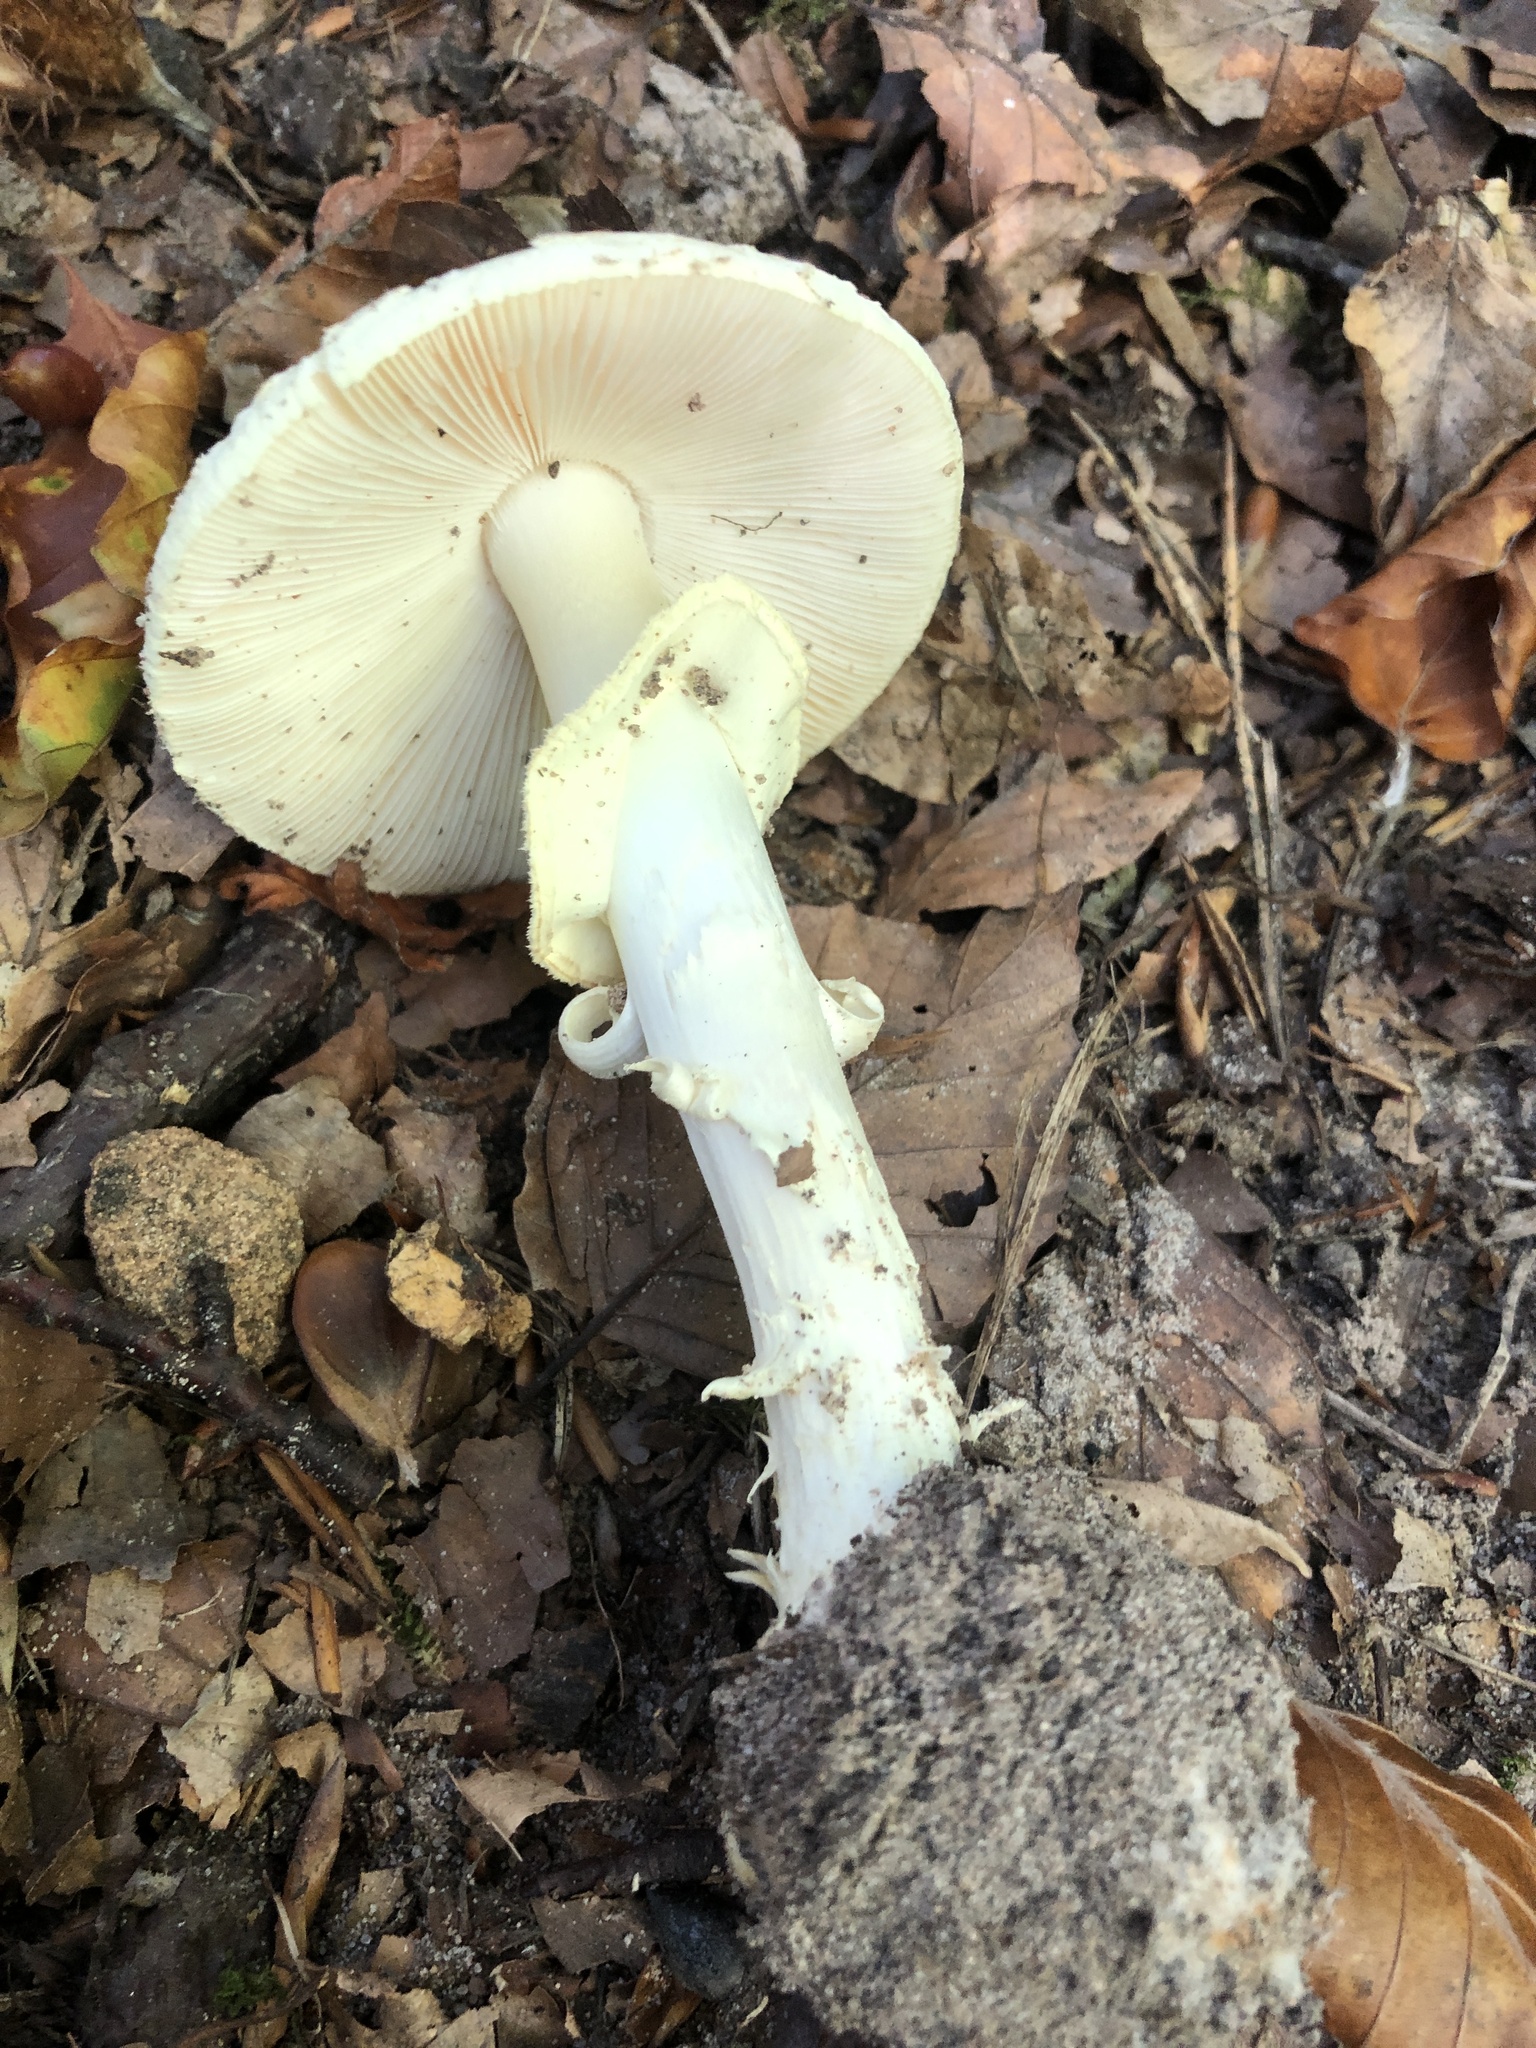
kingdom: Fungi
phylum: Basidiomycota
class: Agaricomycetes
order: Agaricales
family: Amanitaceae
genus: Amanita
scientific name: Amanita citrina
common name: False death-cap
